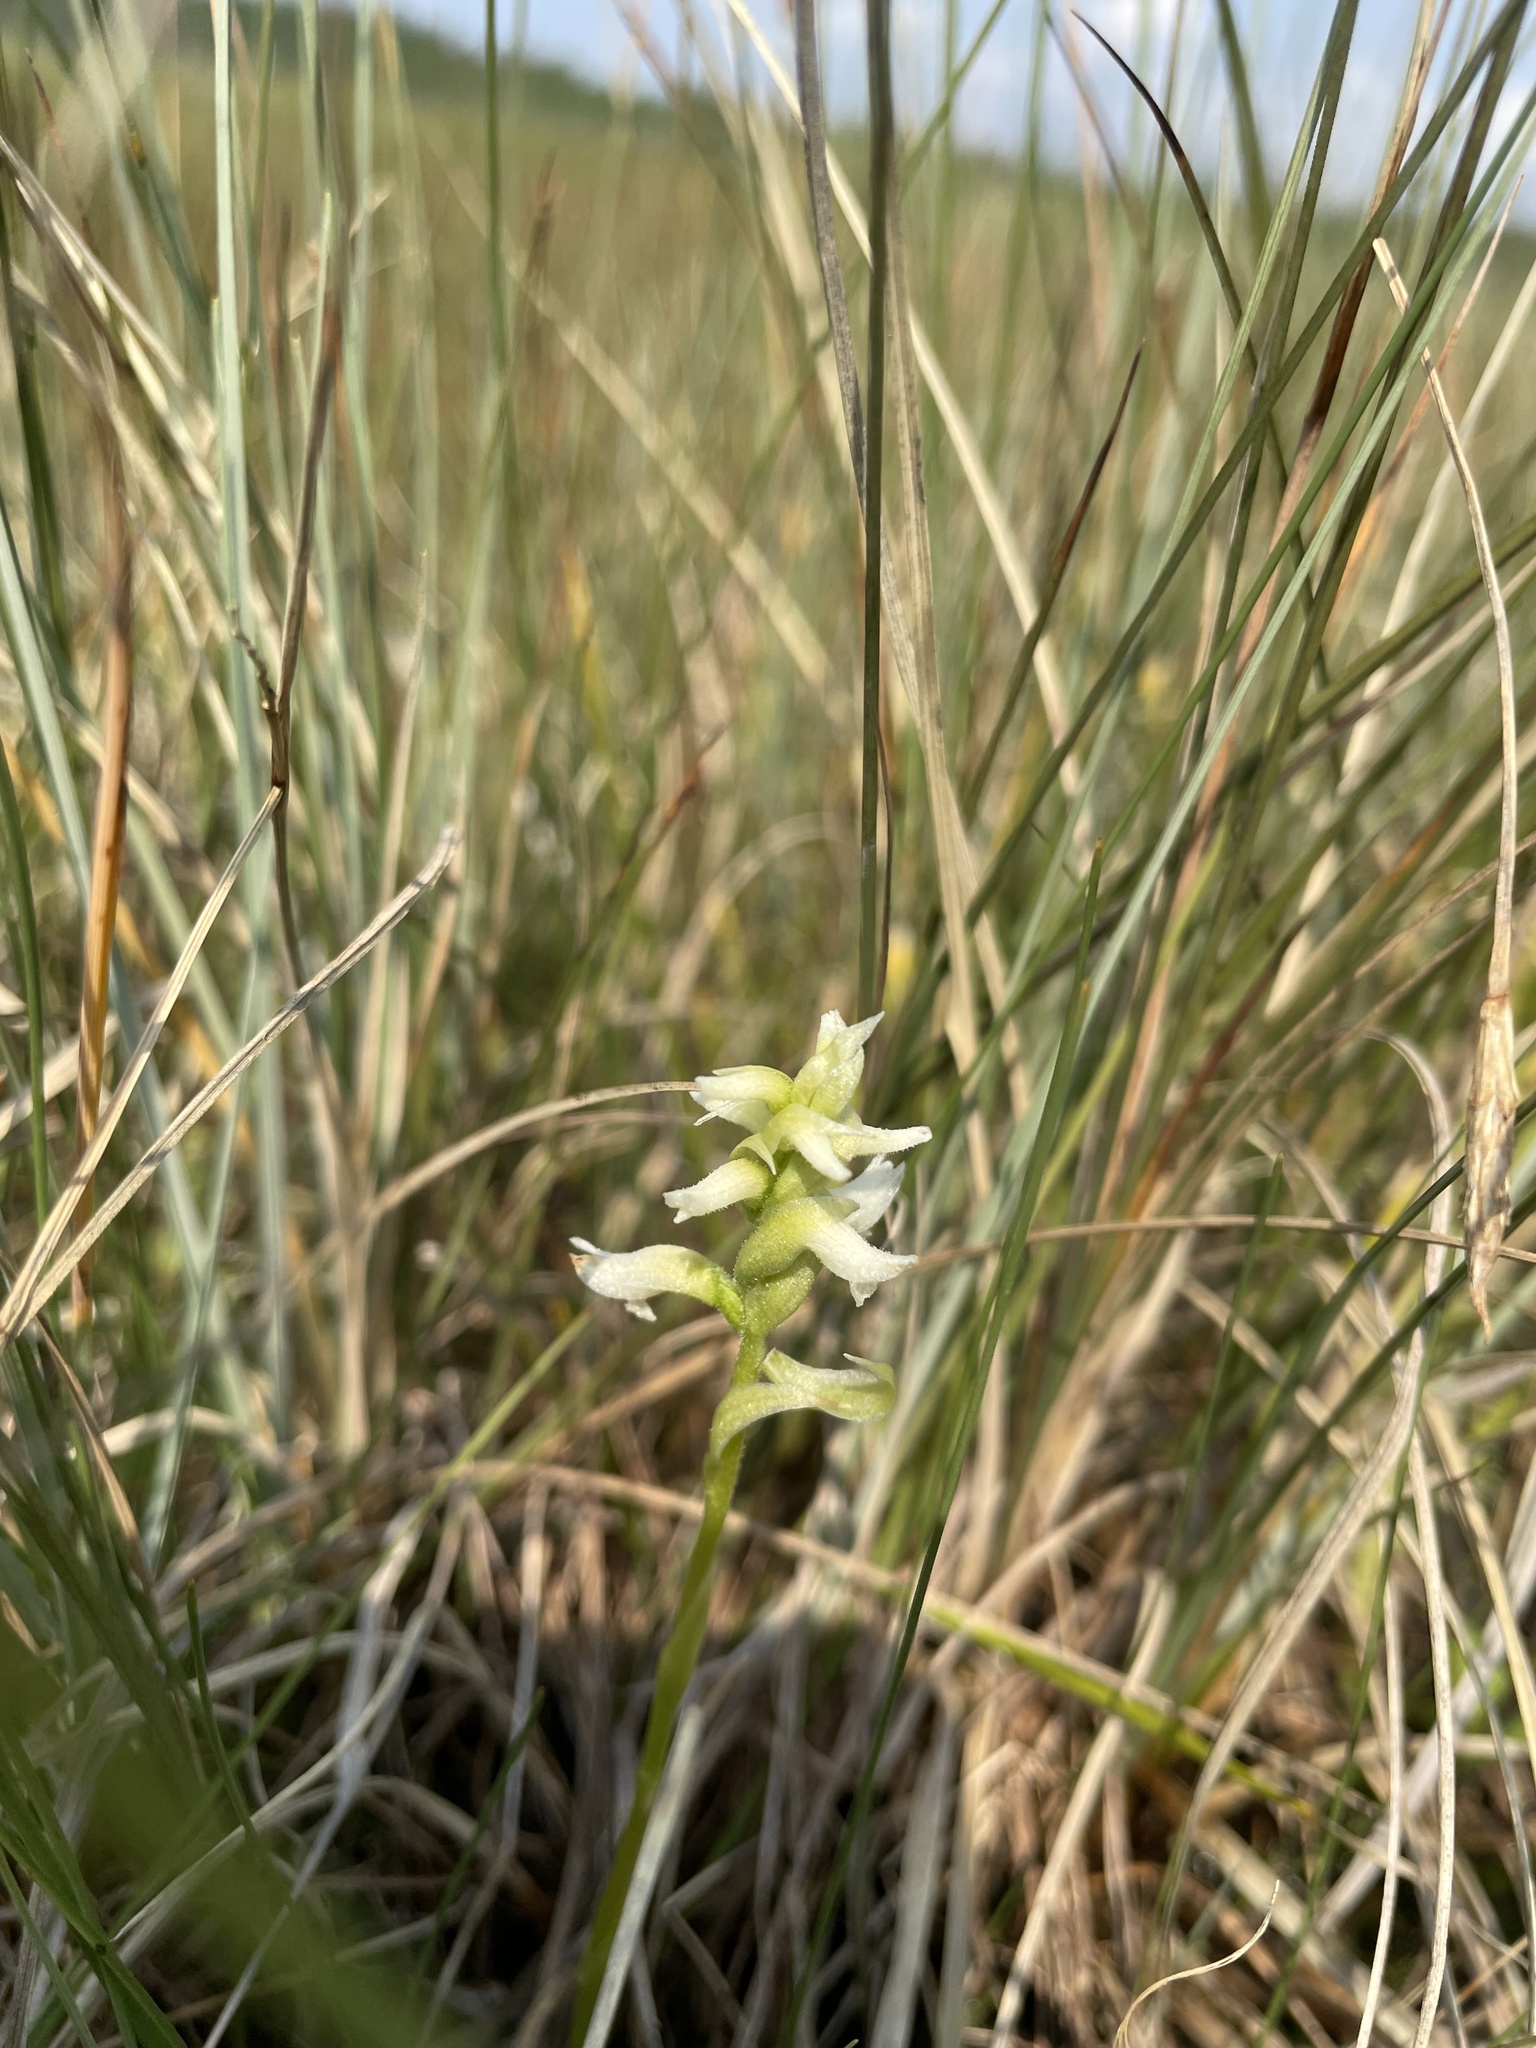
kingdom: Plantae
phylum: Tracheophyta
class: Liliopsida
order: Asparagales
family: Orchidaceae
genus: Spiranthes
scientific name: Spiranthes romanzoffiana
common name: Irish lady's-tresses
